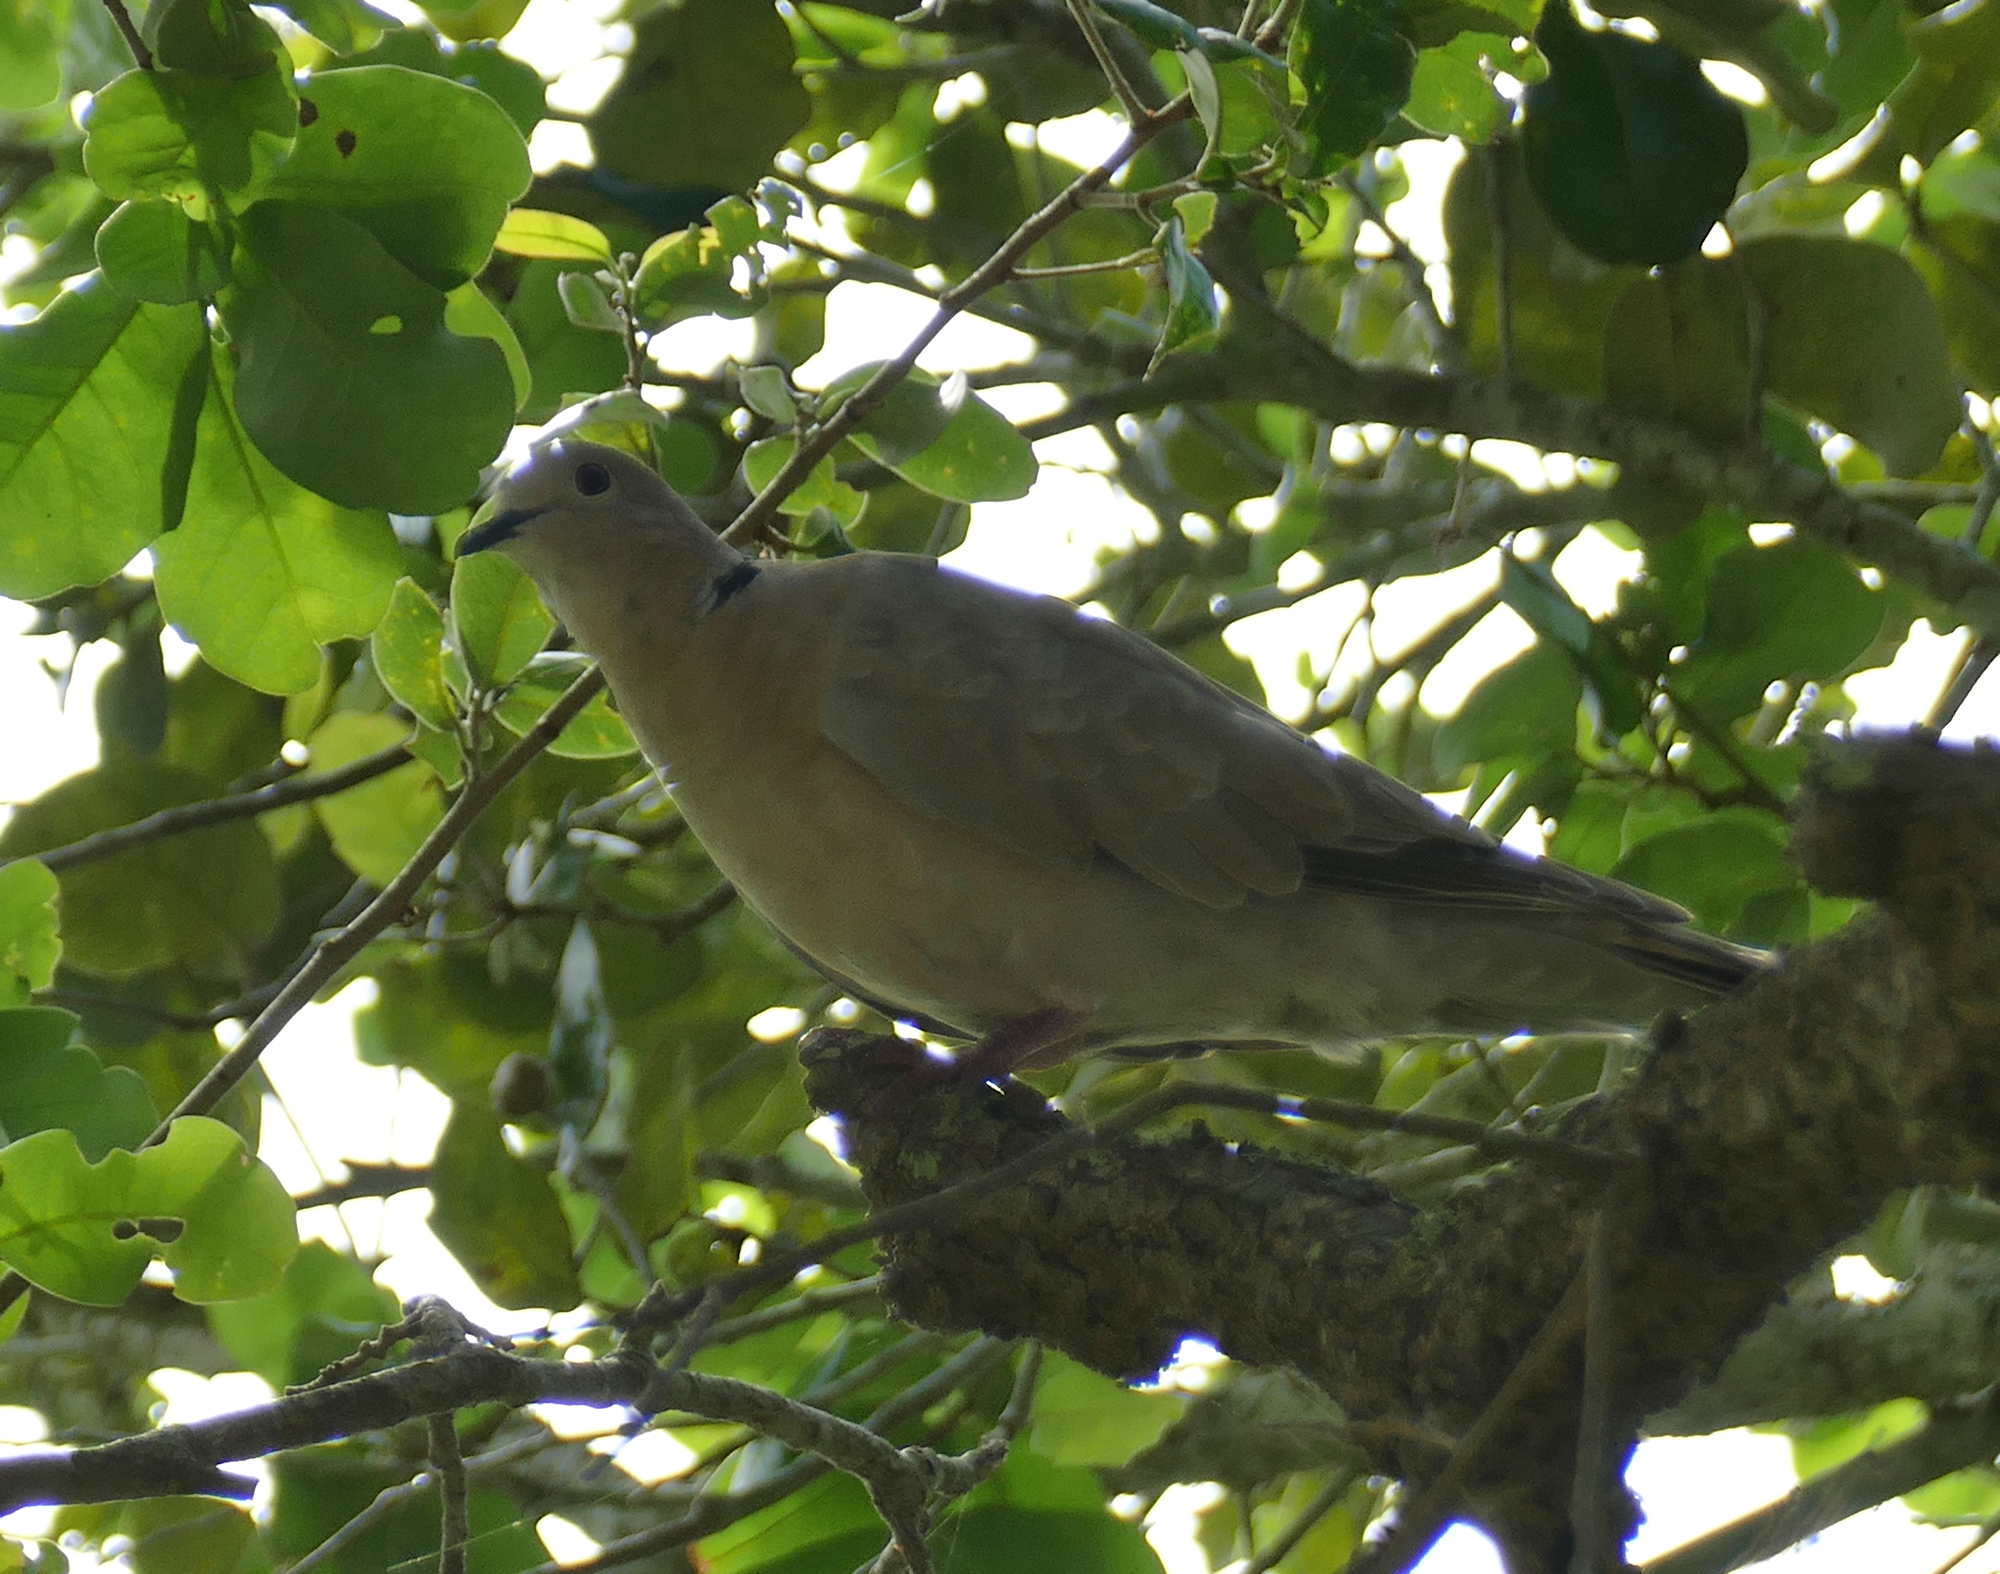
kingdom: Animalia
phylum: Chordata
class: Aves
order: Columbiformes
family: Columbidae
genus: Streptopelia
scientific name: Streptopelia decaocto
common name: Eurasian collared dove
